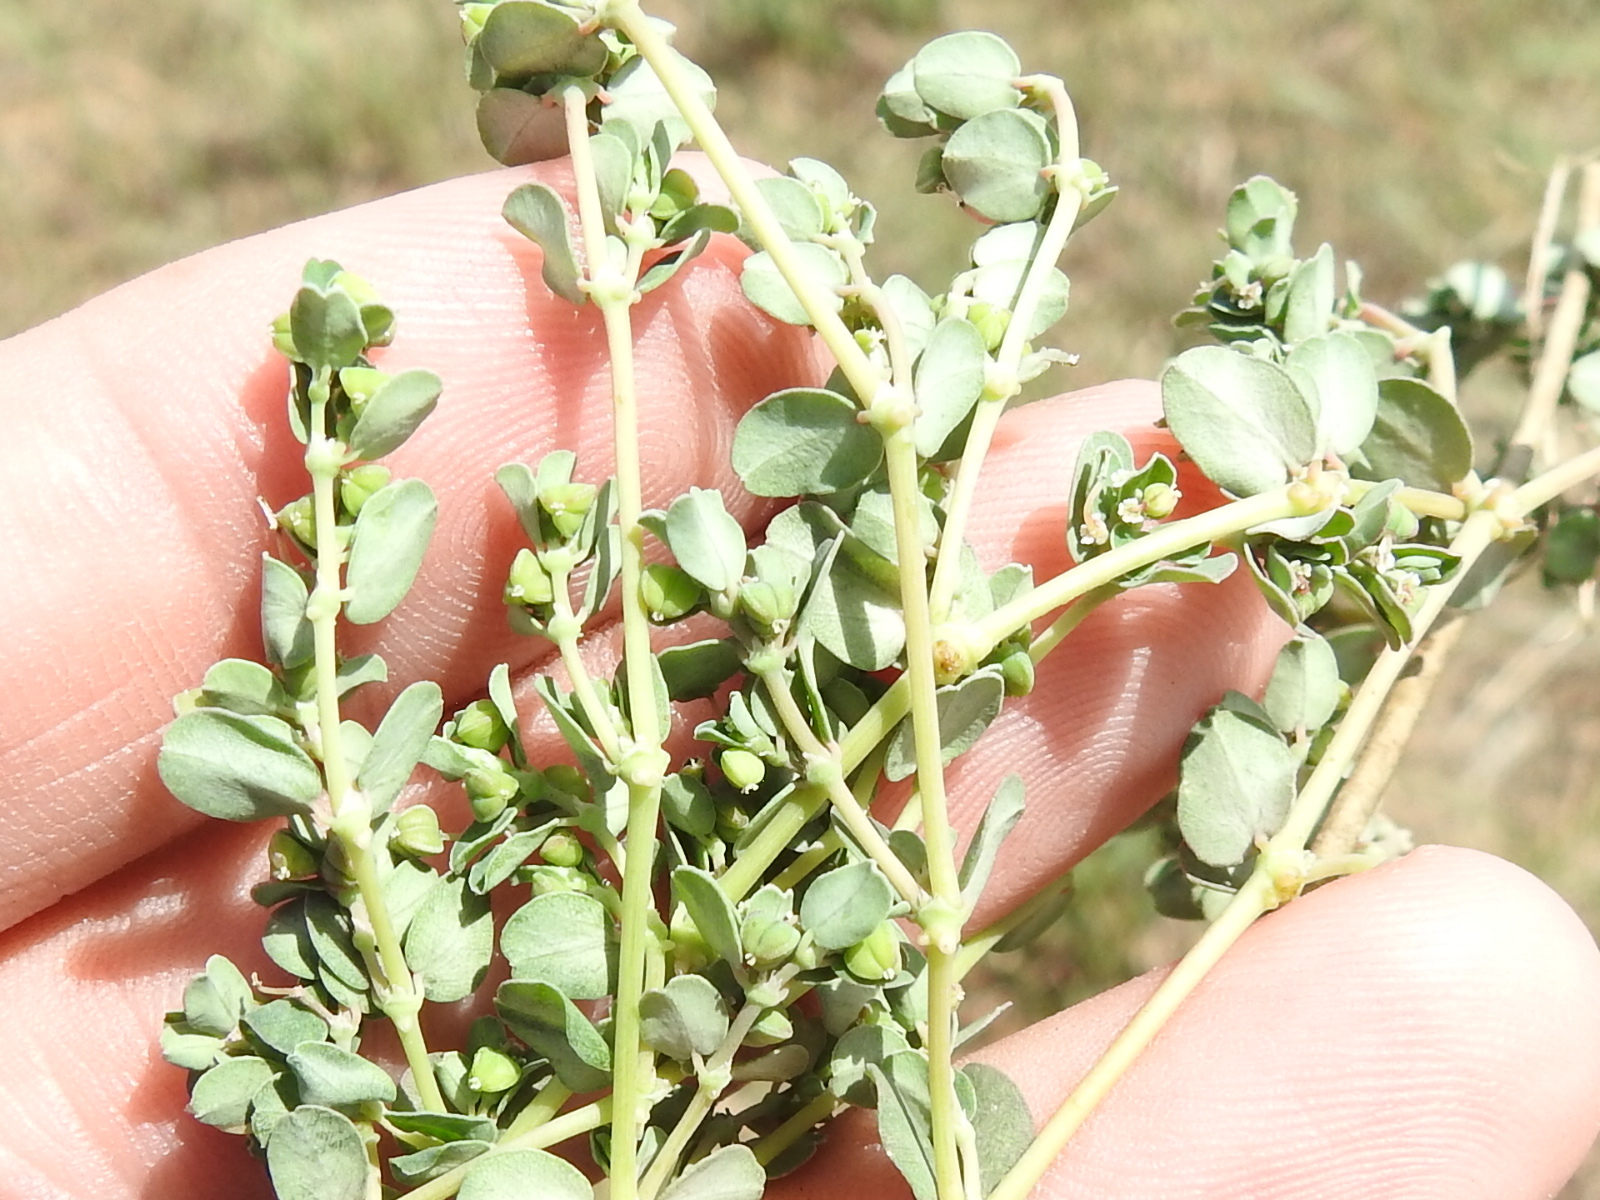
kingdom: Plantae
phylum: Tracheophyta
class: Magnoliopsida
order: Malpighiales
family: Euphorbiaceae
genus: Euphorbia
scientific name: Euphorbia serpens
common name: Matted sandmat
